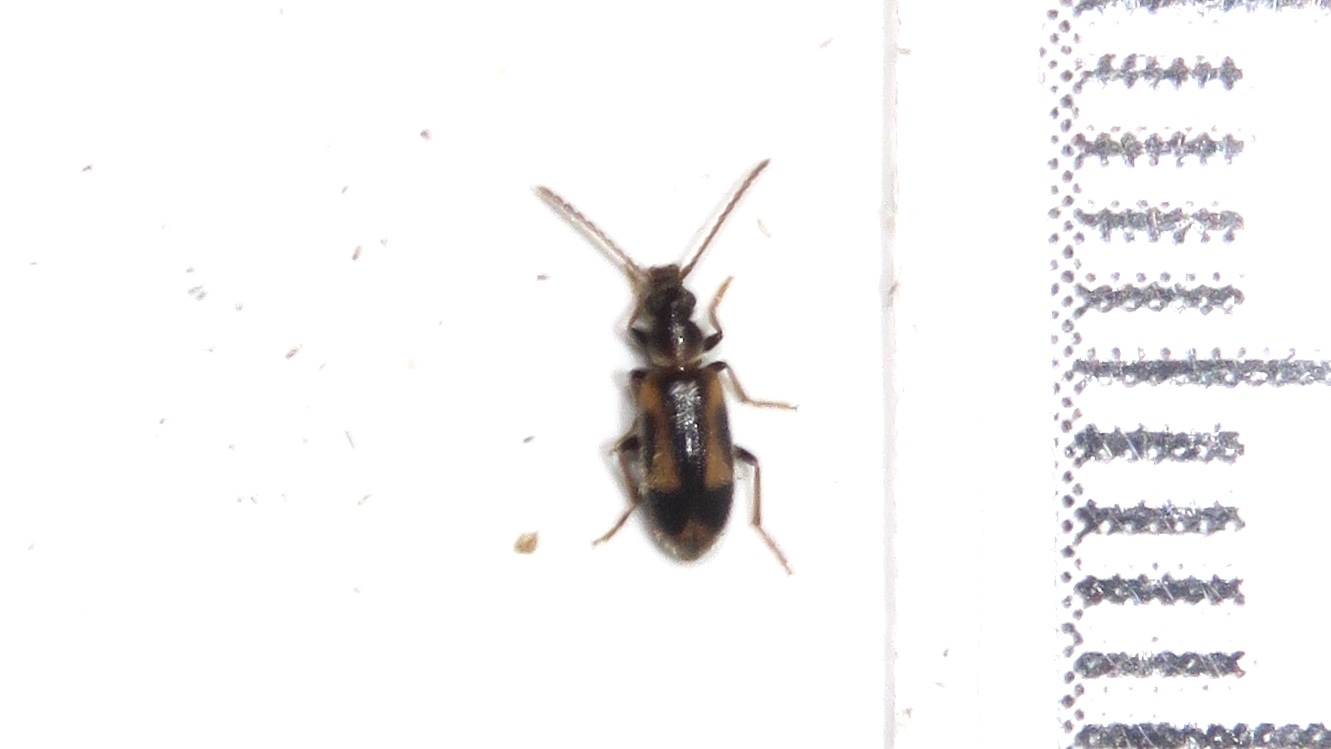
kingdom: Animalia
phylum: Arthropoda
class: Insecta
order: Coleoptera
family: Anthicidae
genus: Notoxus
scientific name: Notoxus anchora
